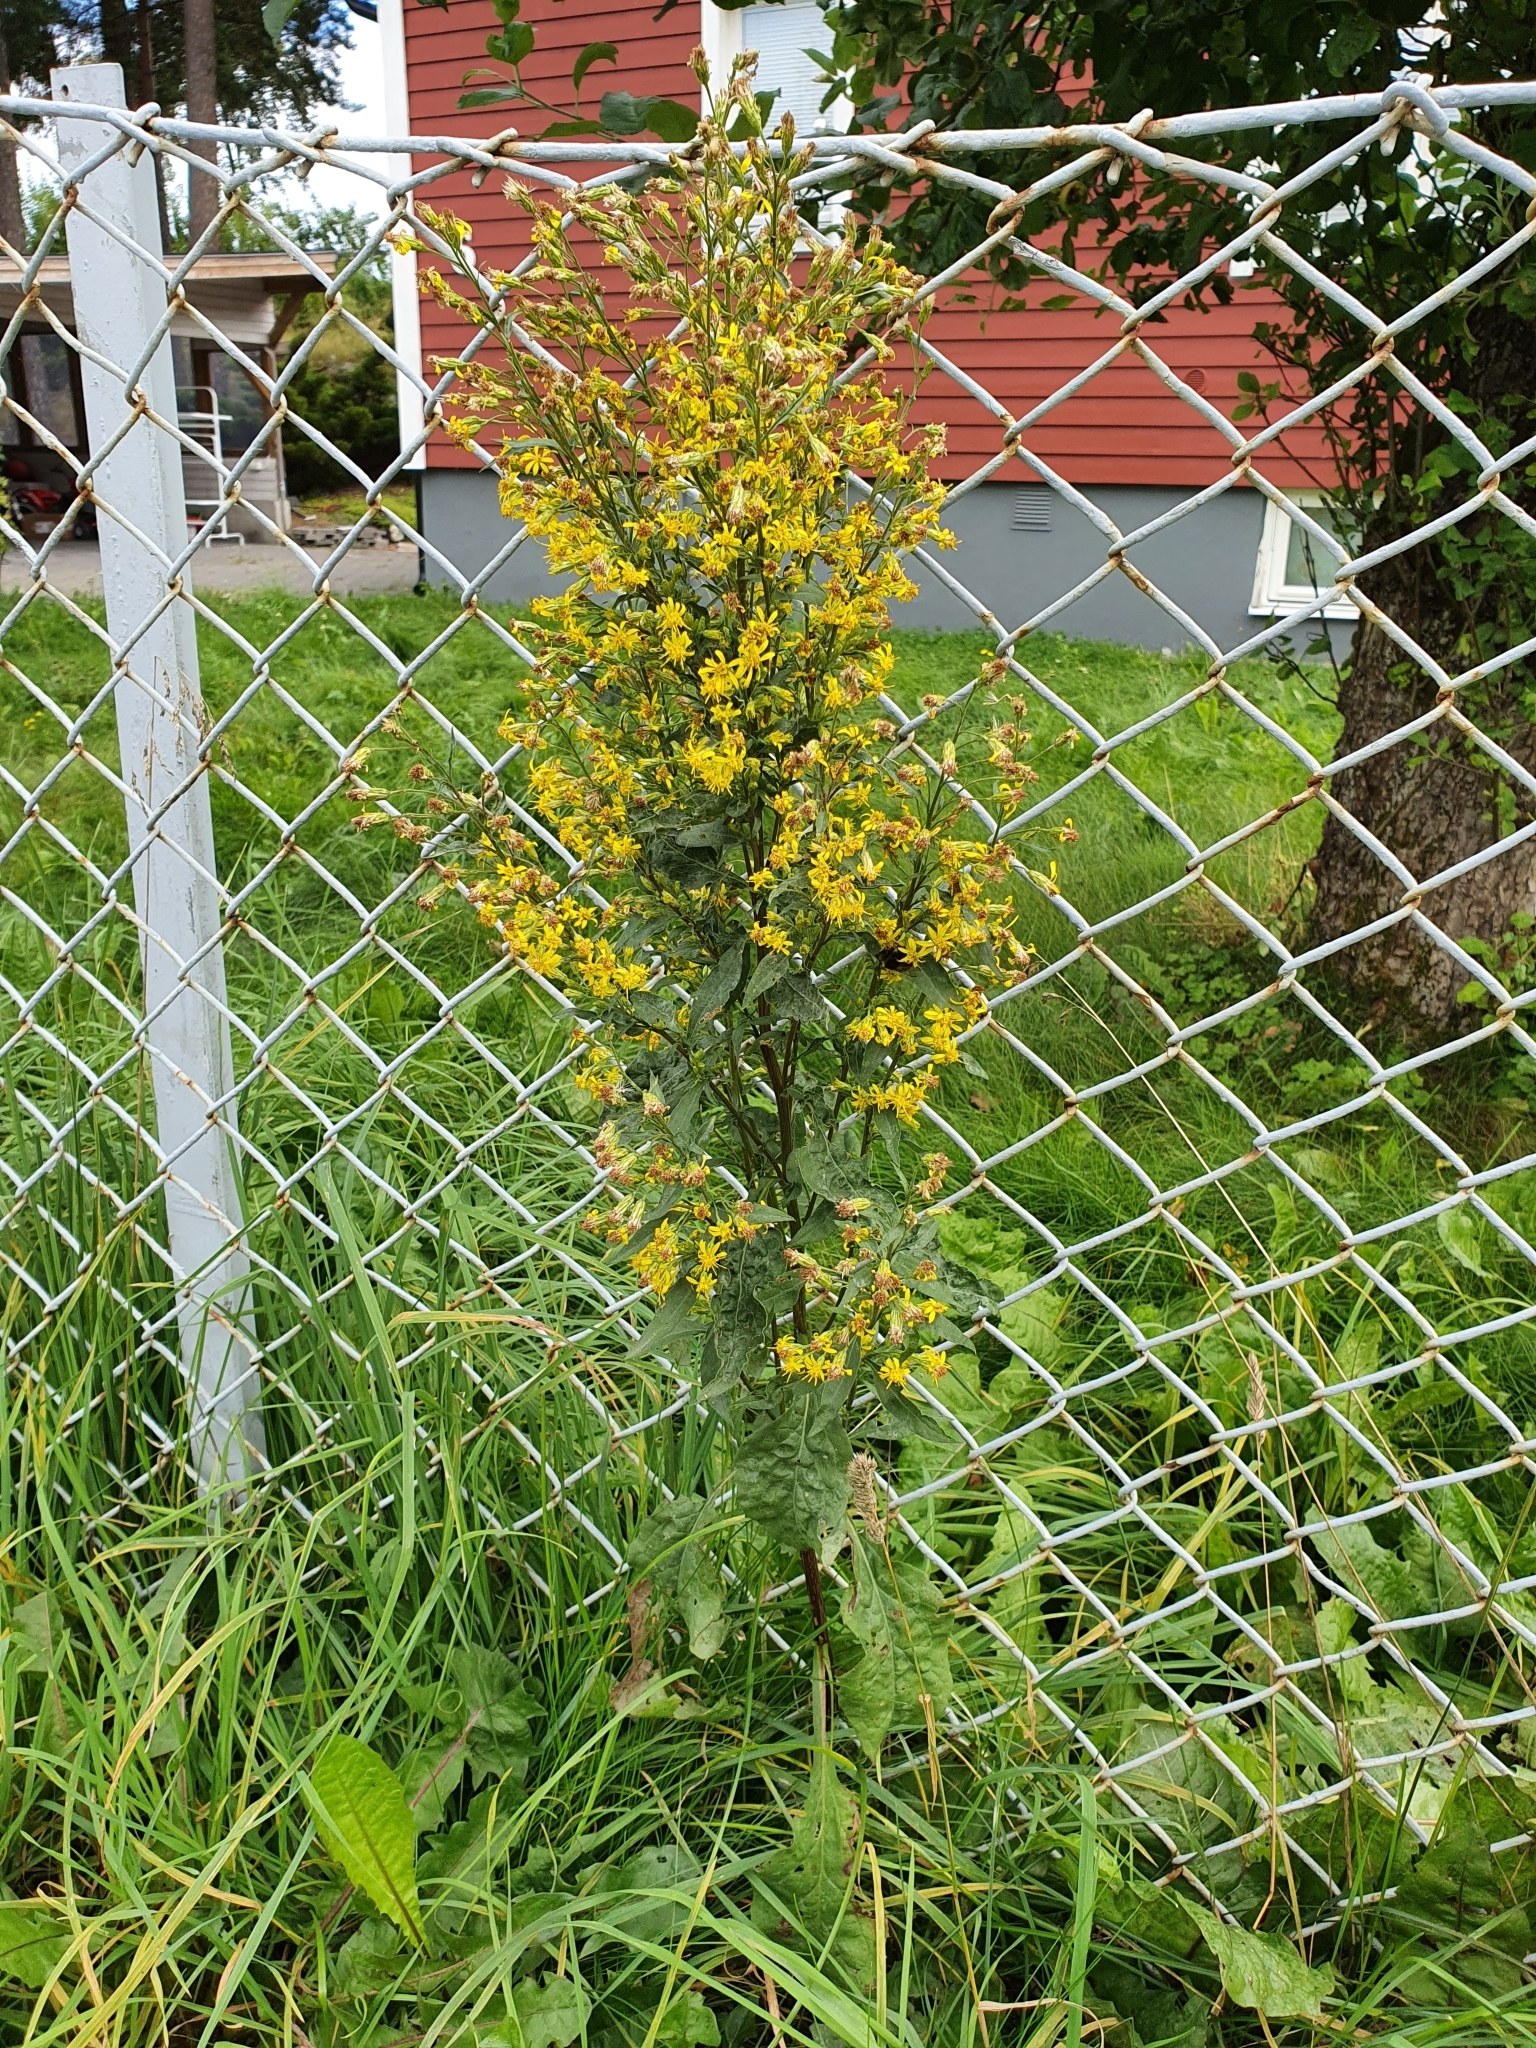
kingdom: Plantae
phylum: Tracheophyta
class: Magnoliopsida
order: Asterales
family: Asteraceae
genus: Solidago
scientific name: Solidago virgaurea
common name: Goldenrod
